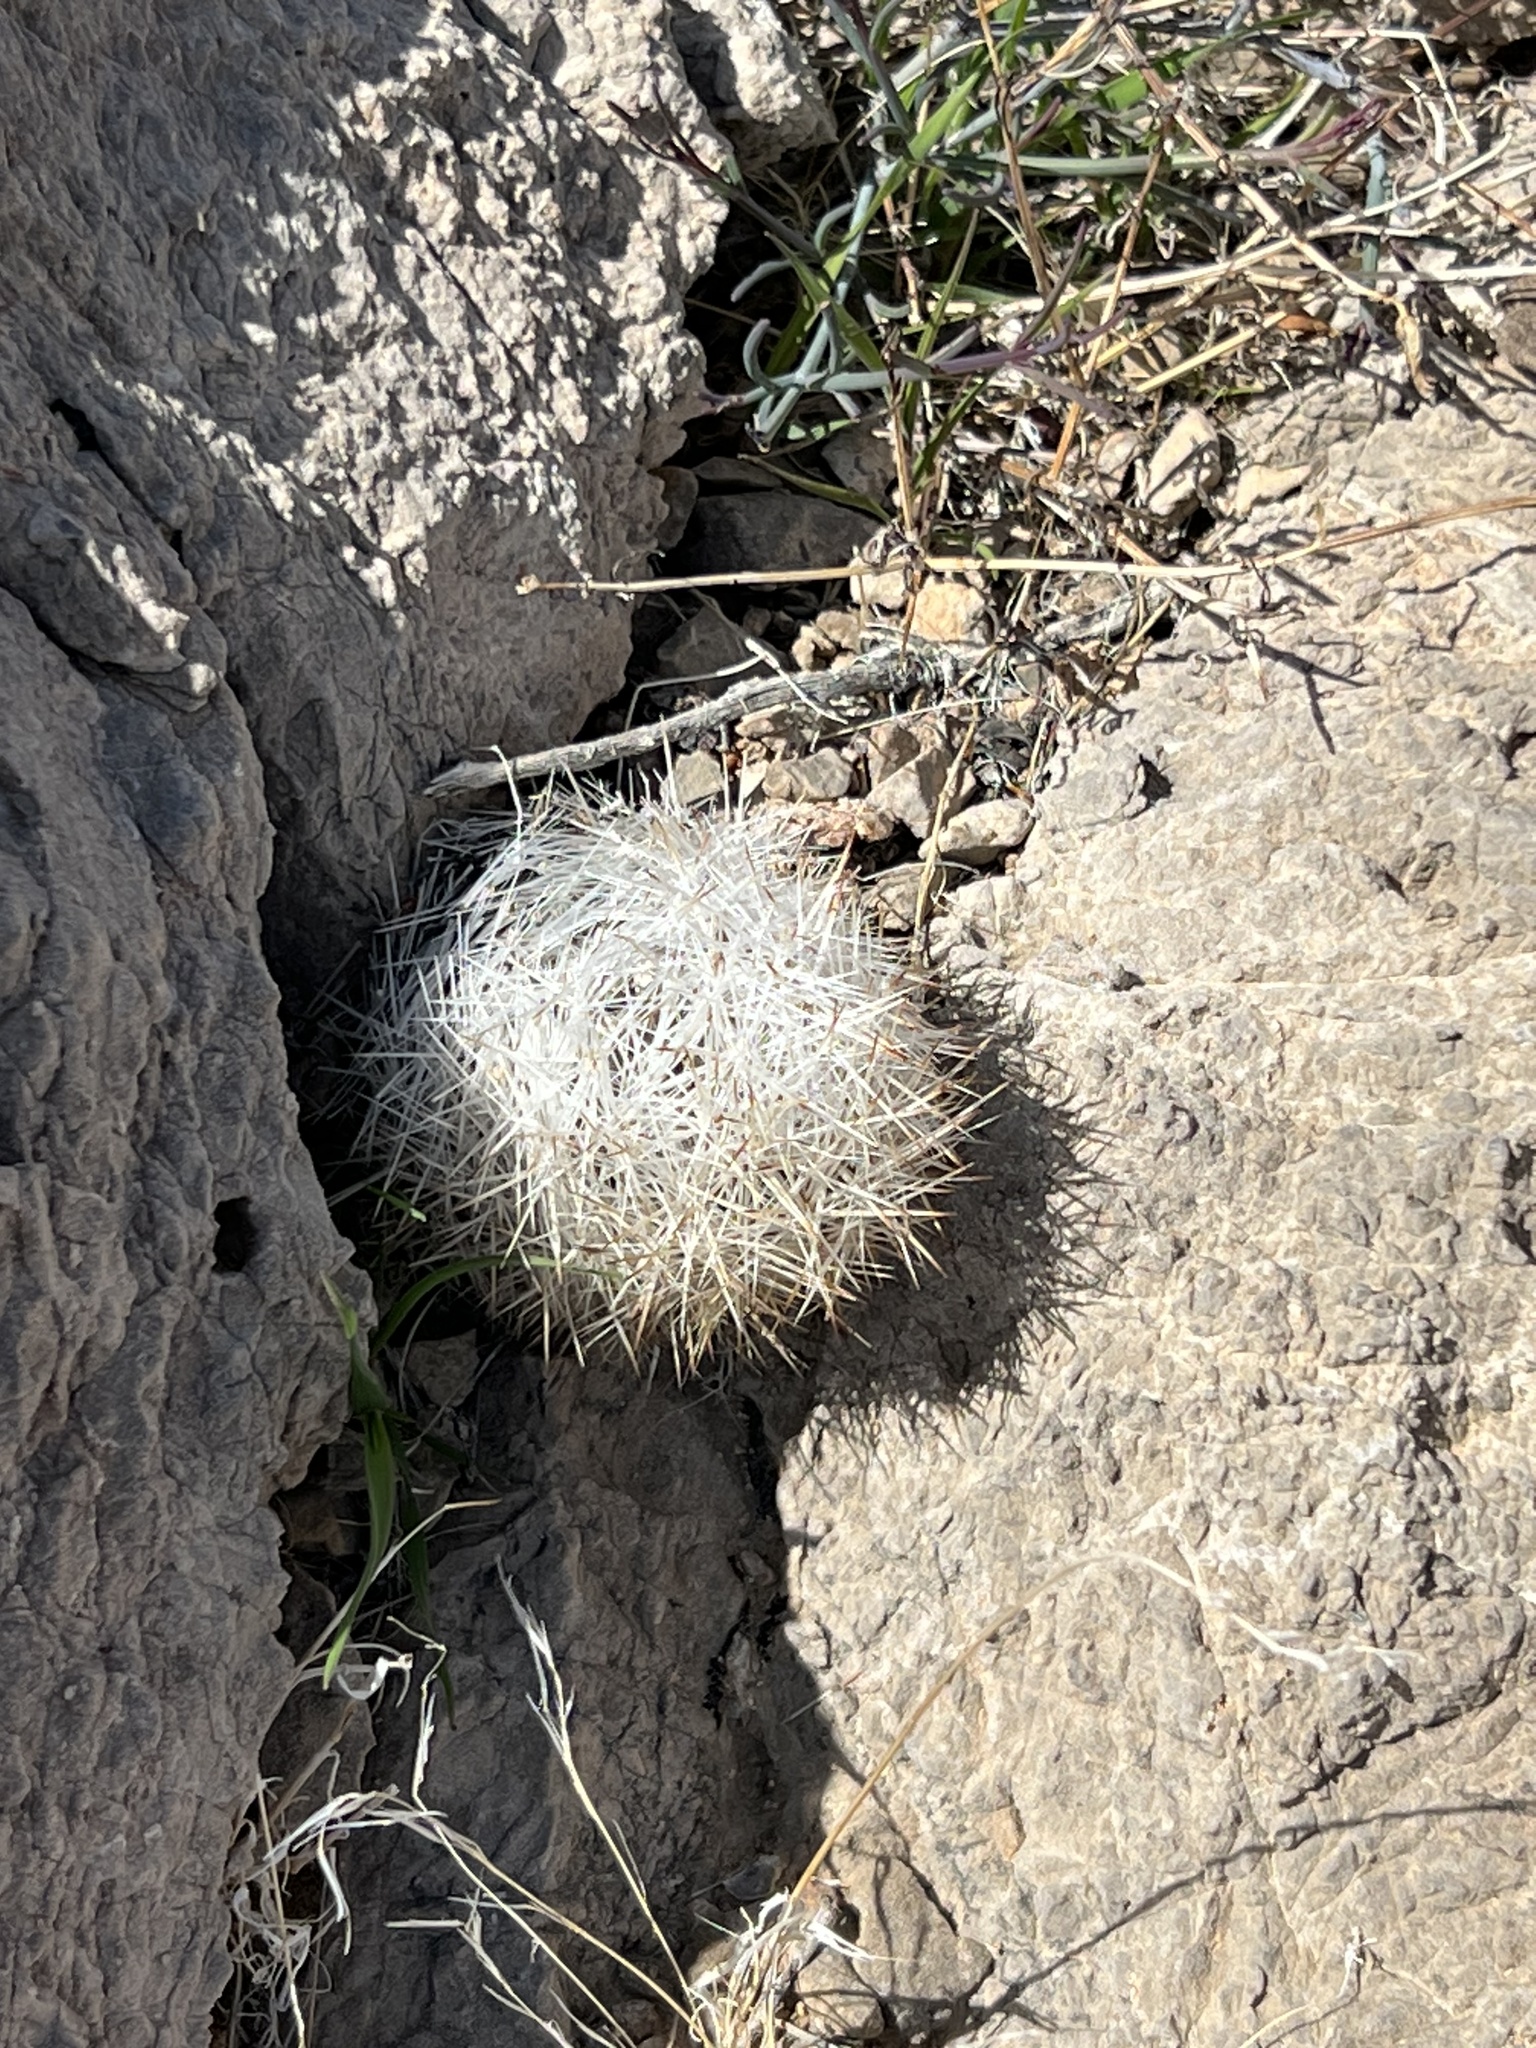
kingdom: Plantae
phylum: Tracheophyta
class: Magnoliopsida
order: Caryophyllales
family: Cactaceae
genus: Pelecyphora
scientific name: Pelecyphora dasyacantha
